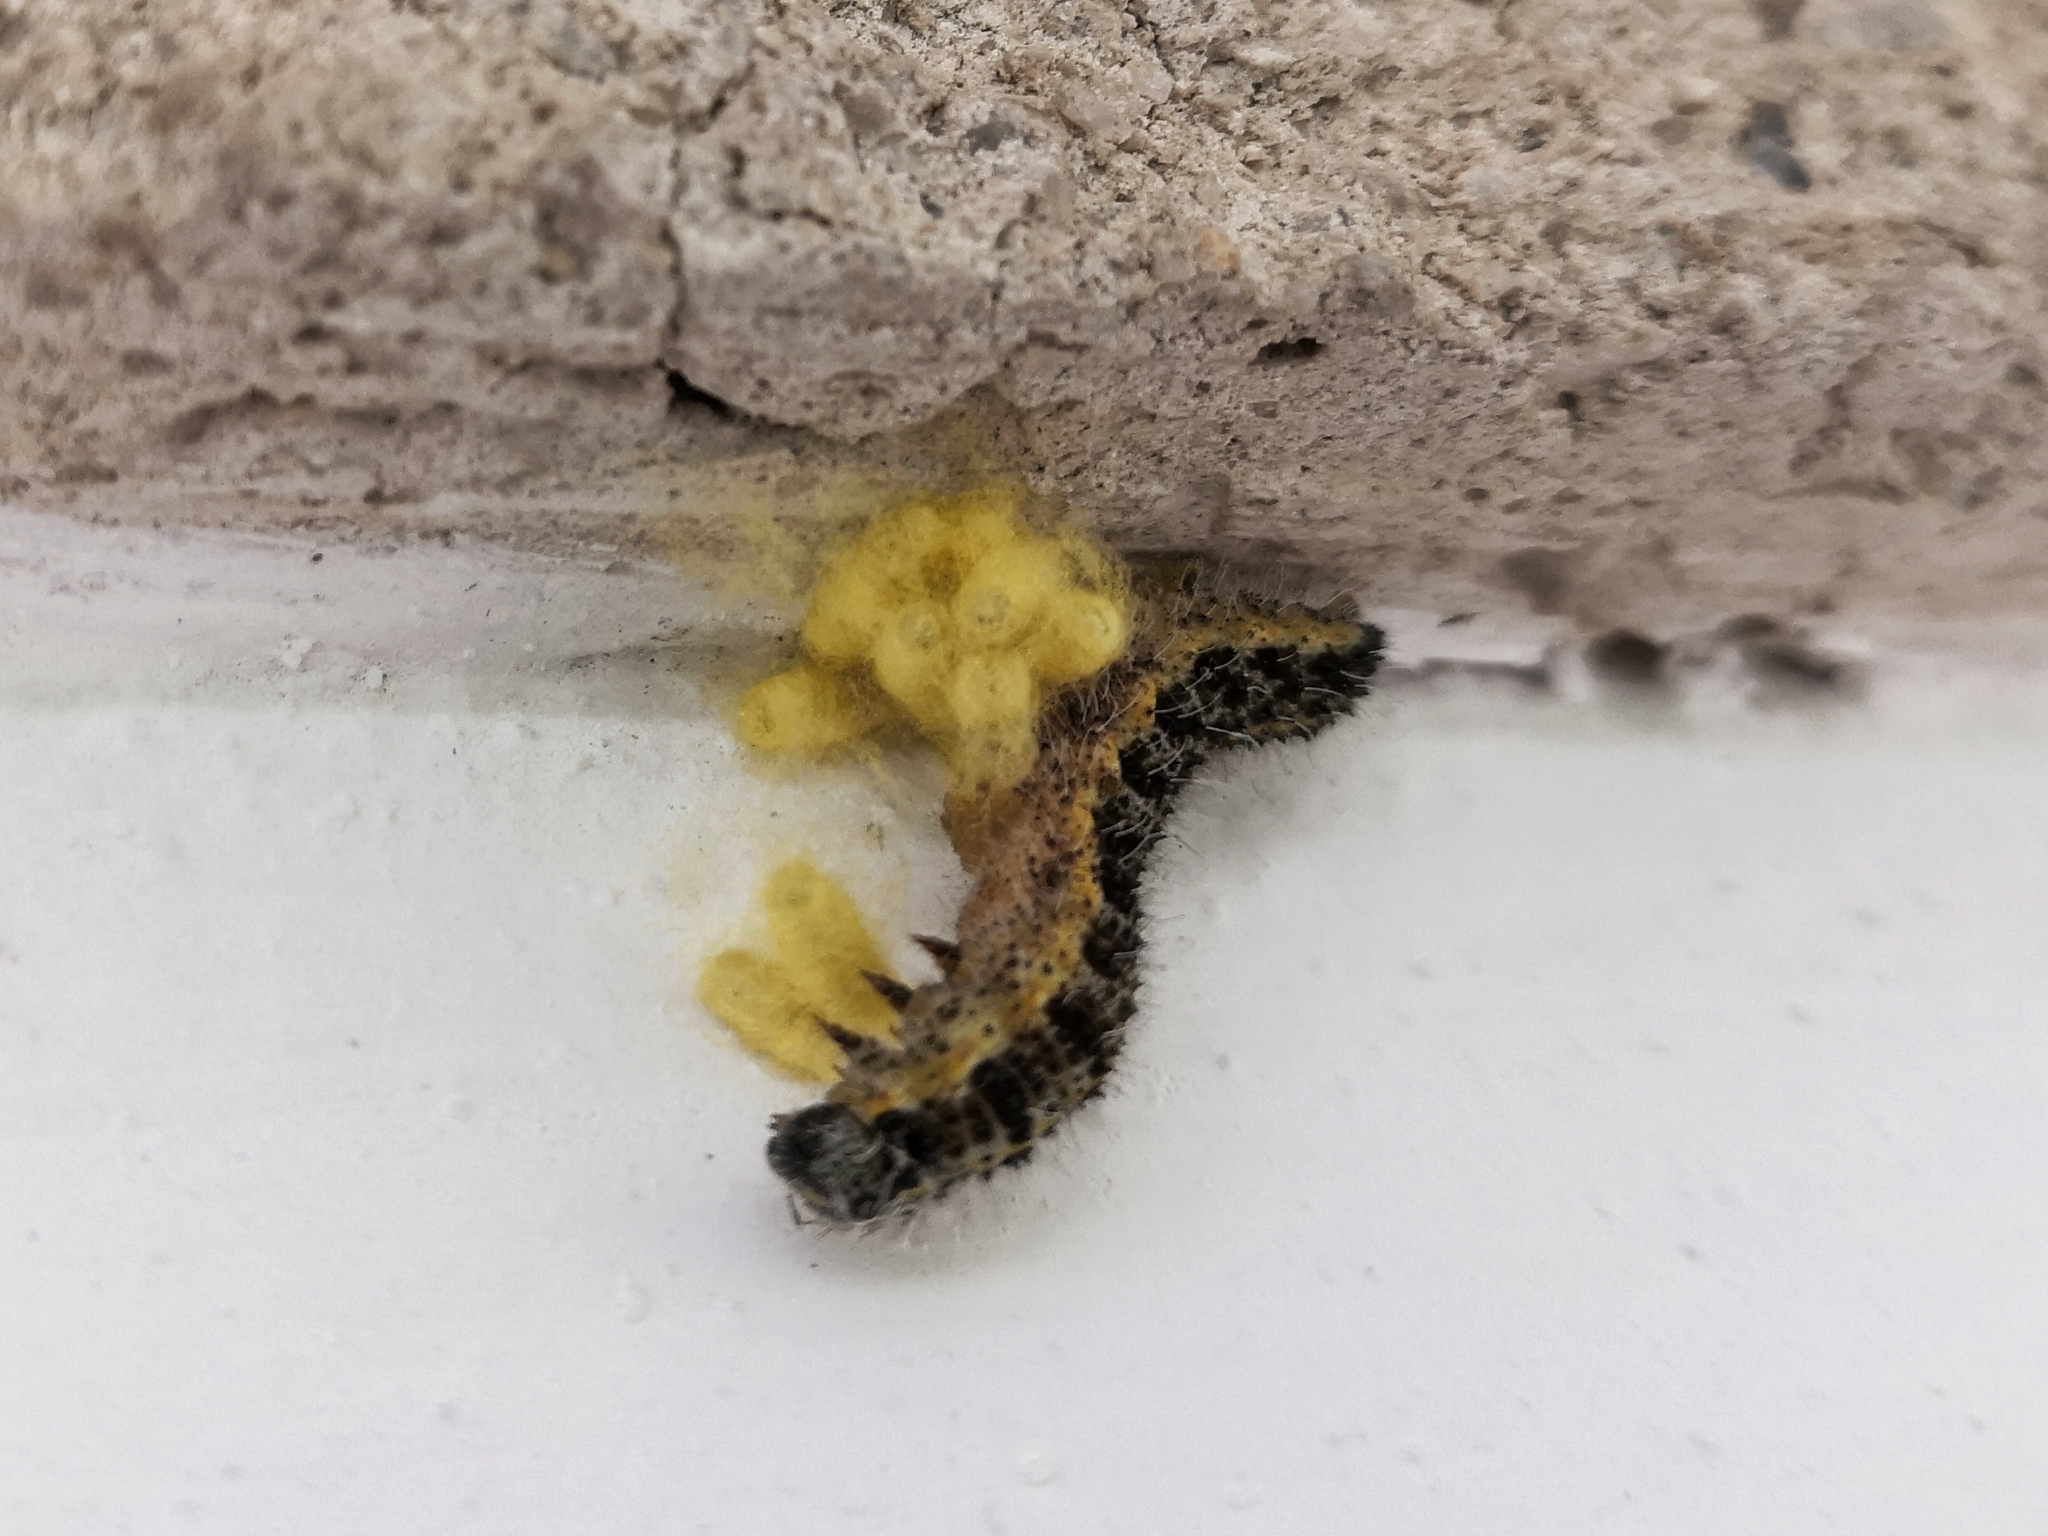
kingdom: Animalia
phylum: Arthropoda
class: Insecta
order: Hymenoptera
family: Braconidae
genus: Cotesia
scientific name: Cotesia glomerata
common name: Parasitoid wasp
